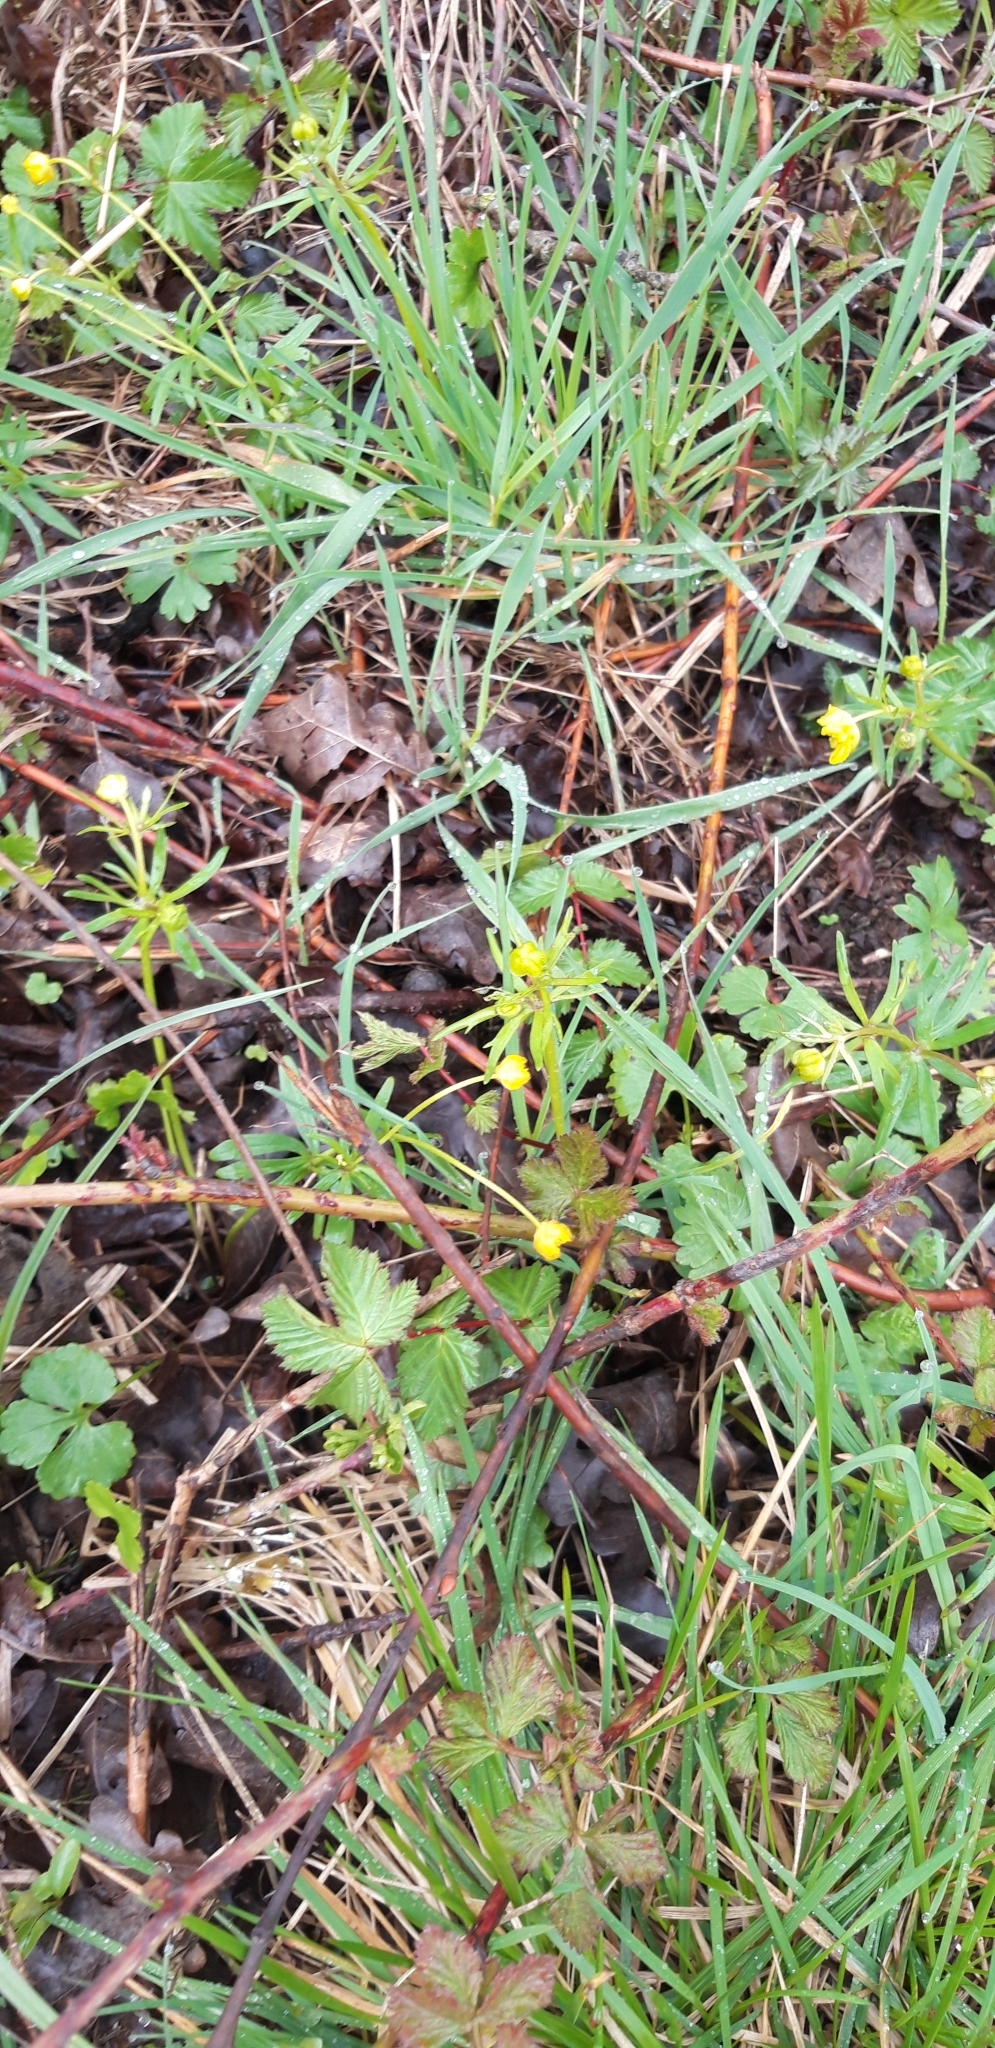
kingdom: Plantae
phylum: Tracheophyta
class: Magnoliopsida
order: Ranunculales
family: Ranunculaceae
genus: Ranunculus
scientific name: Ranunculus auricomus
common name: Goldilocks buttercup
